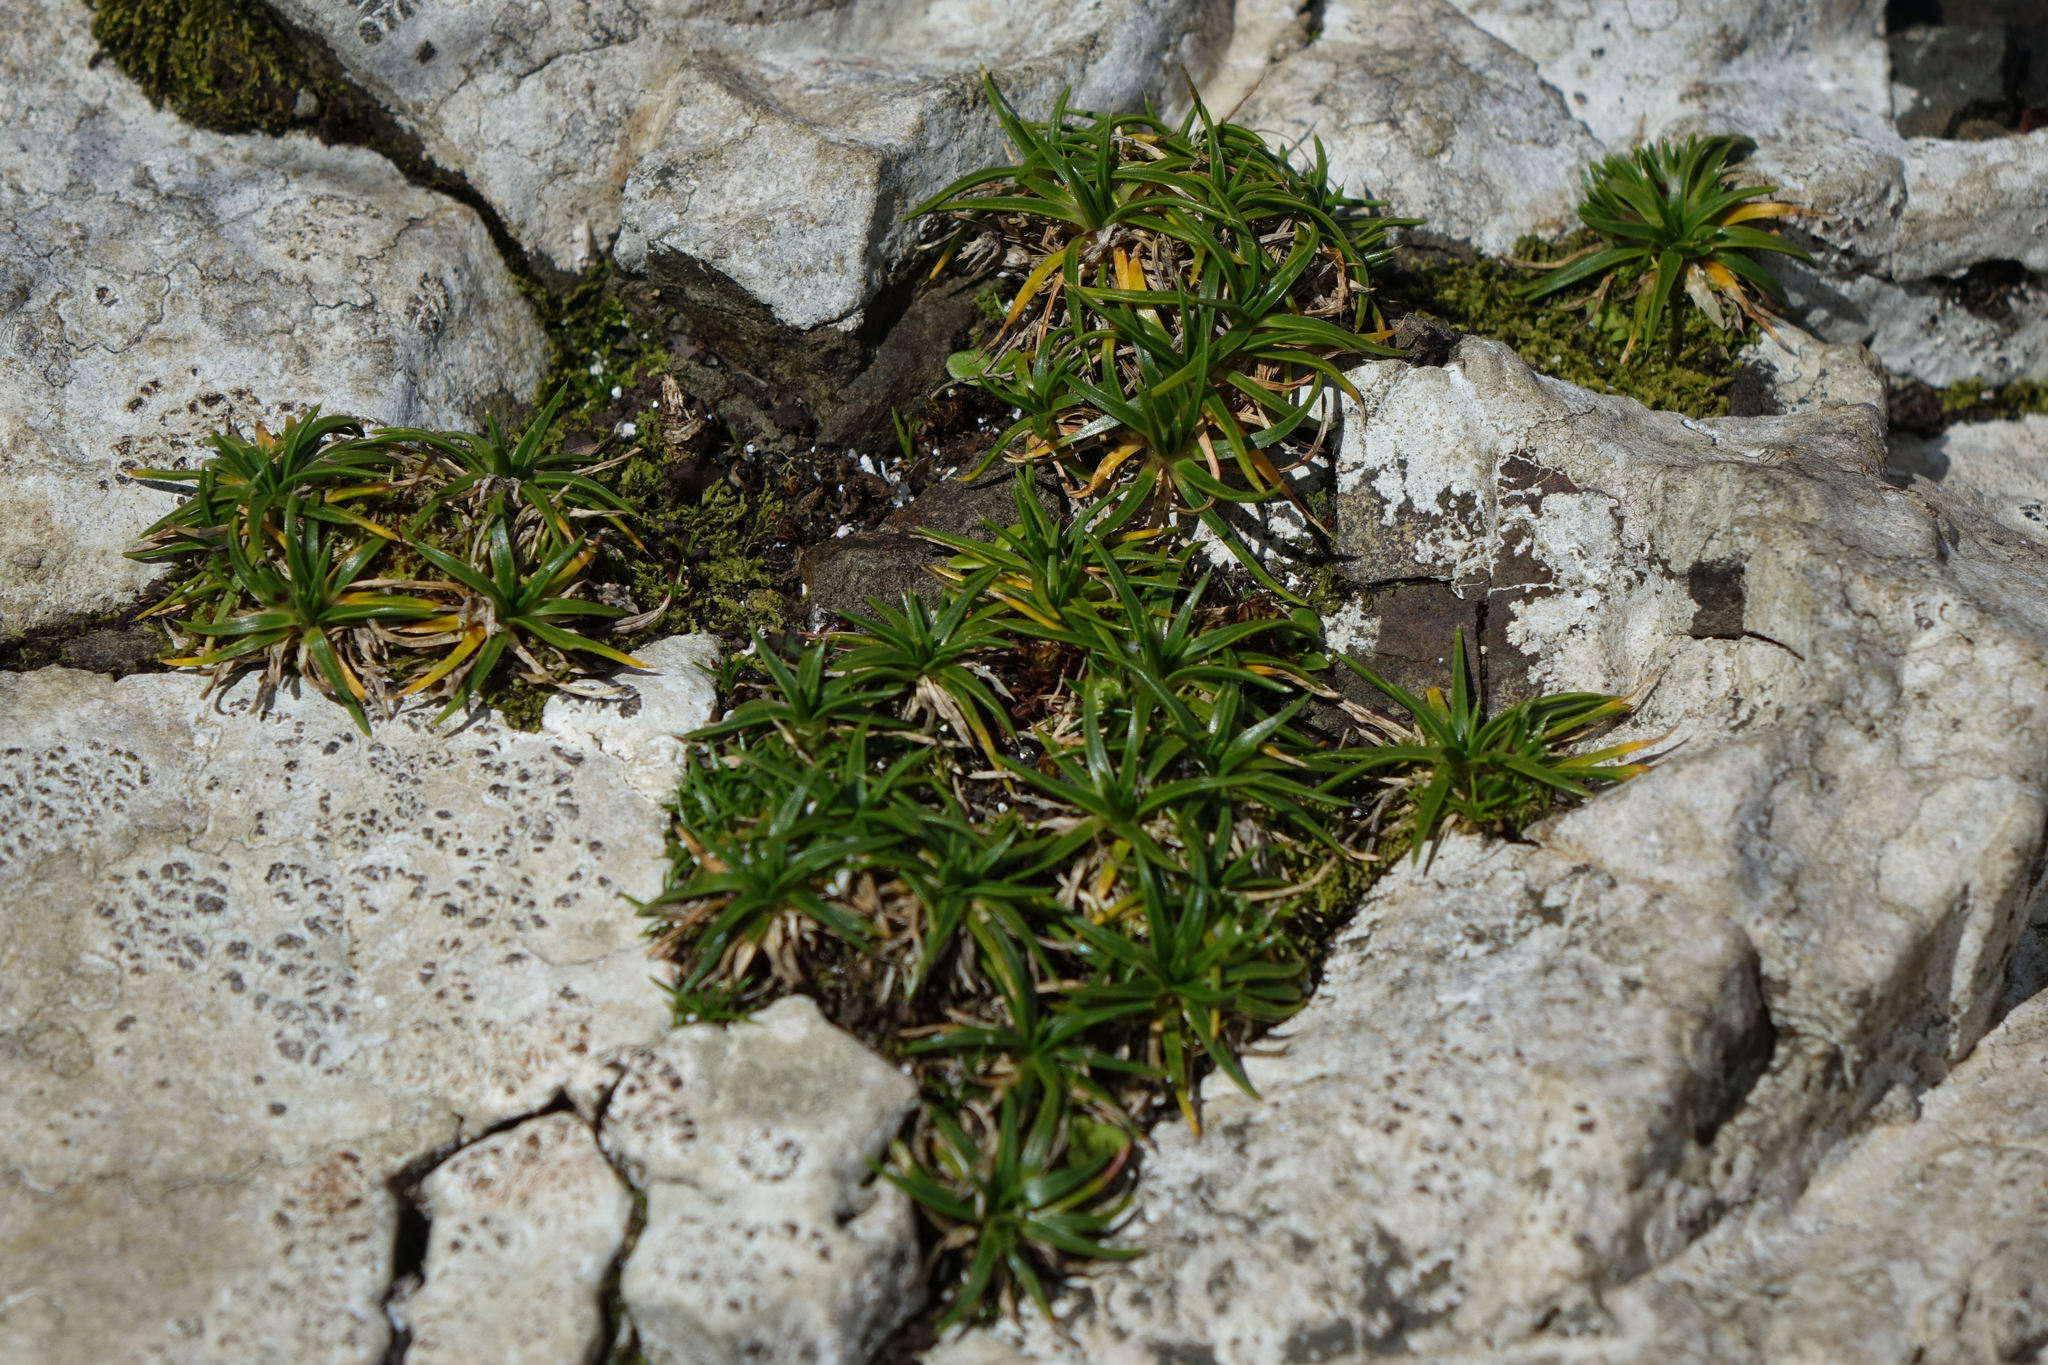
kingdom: Plantae
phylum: Tracheophyta
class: Magnoliopsida
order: Caryophyllales
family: Caryophyllaceae
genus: Colobanthus
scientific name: Colobanthus muelleri
